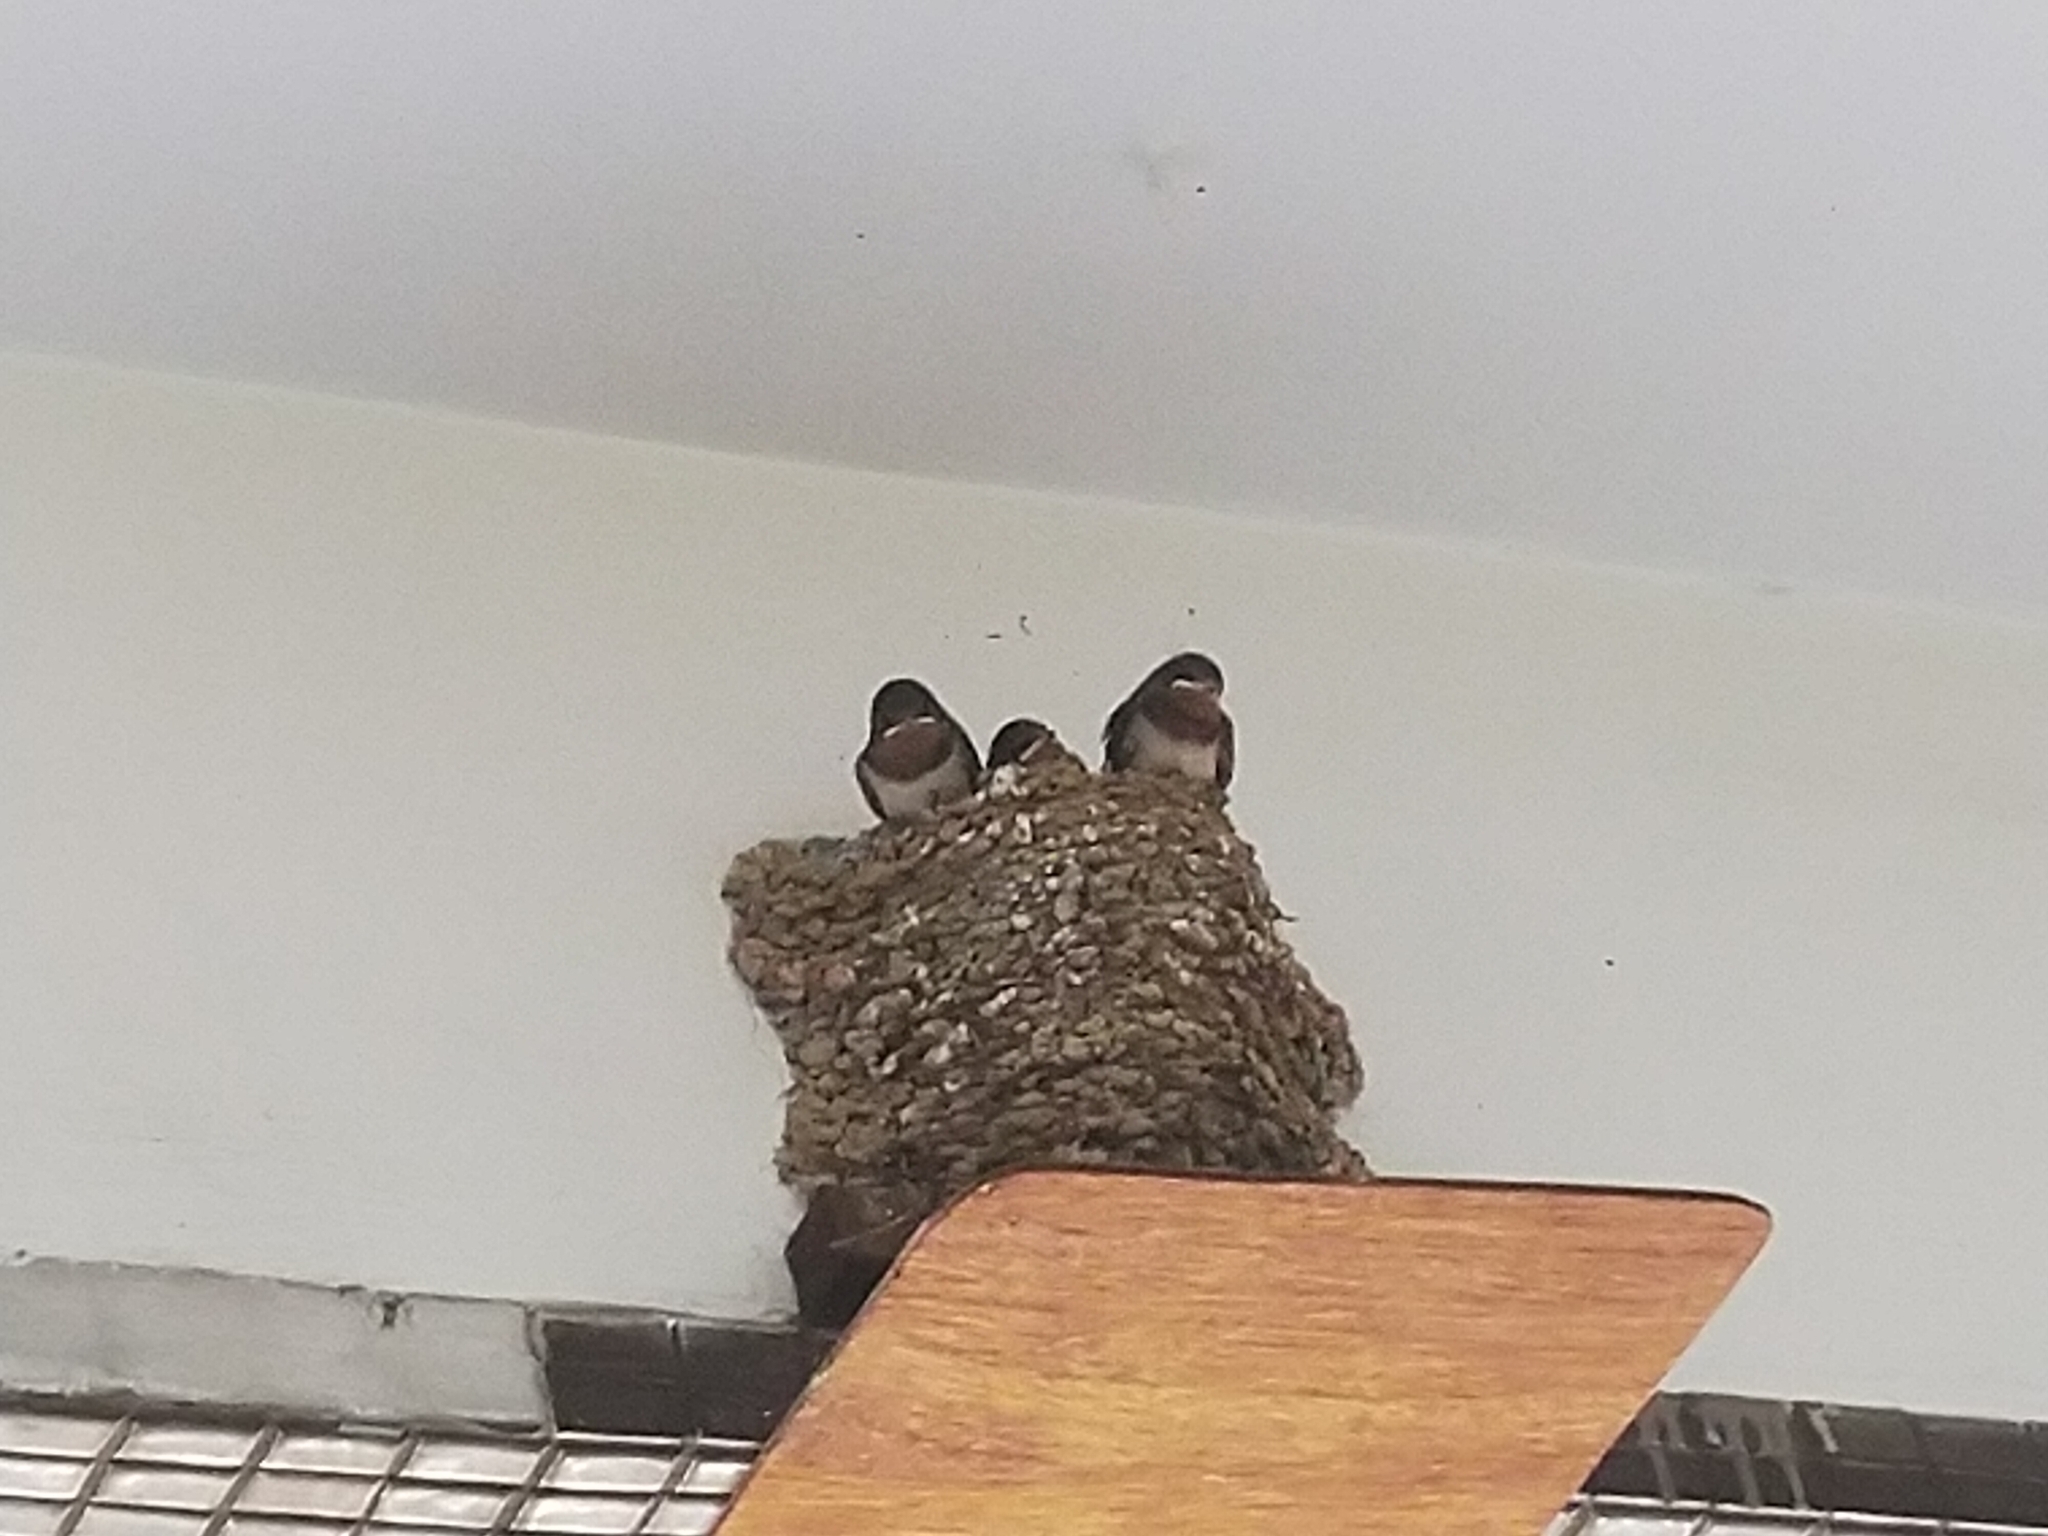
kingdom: Animalia
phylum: Chordata
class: Aves
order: Passeriformes
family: Hirundinidae
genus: Hirundo
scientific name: Hirundo rustica
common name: Barn swallow
